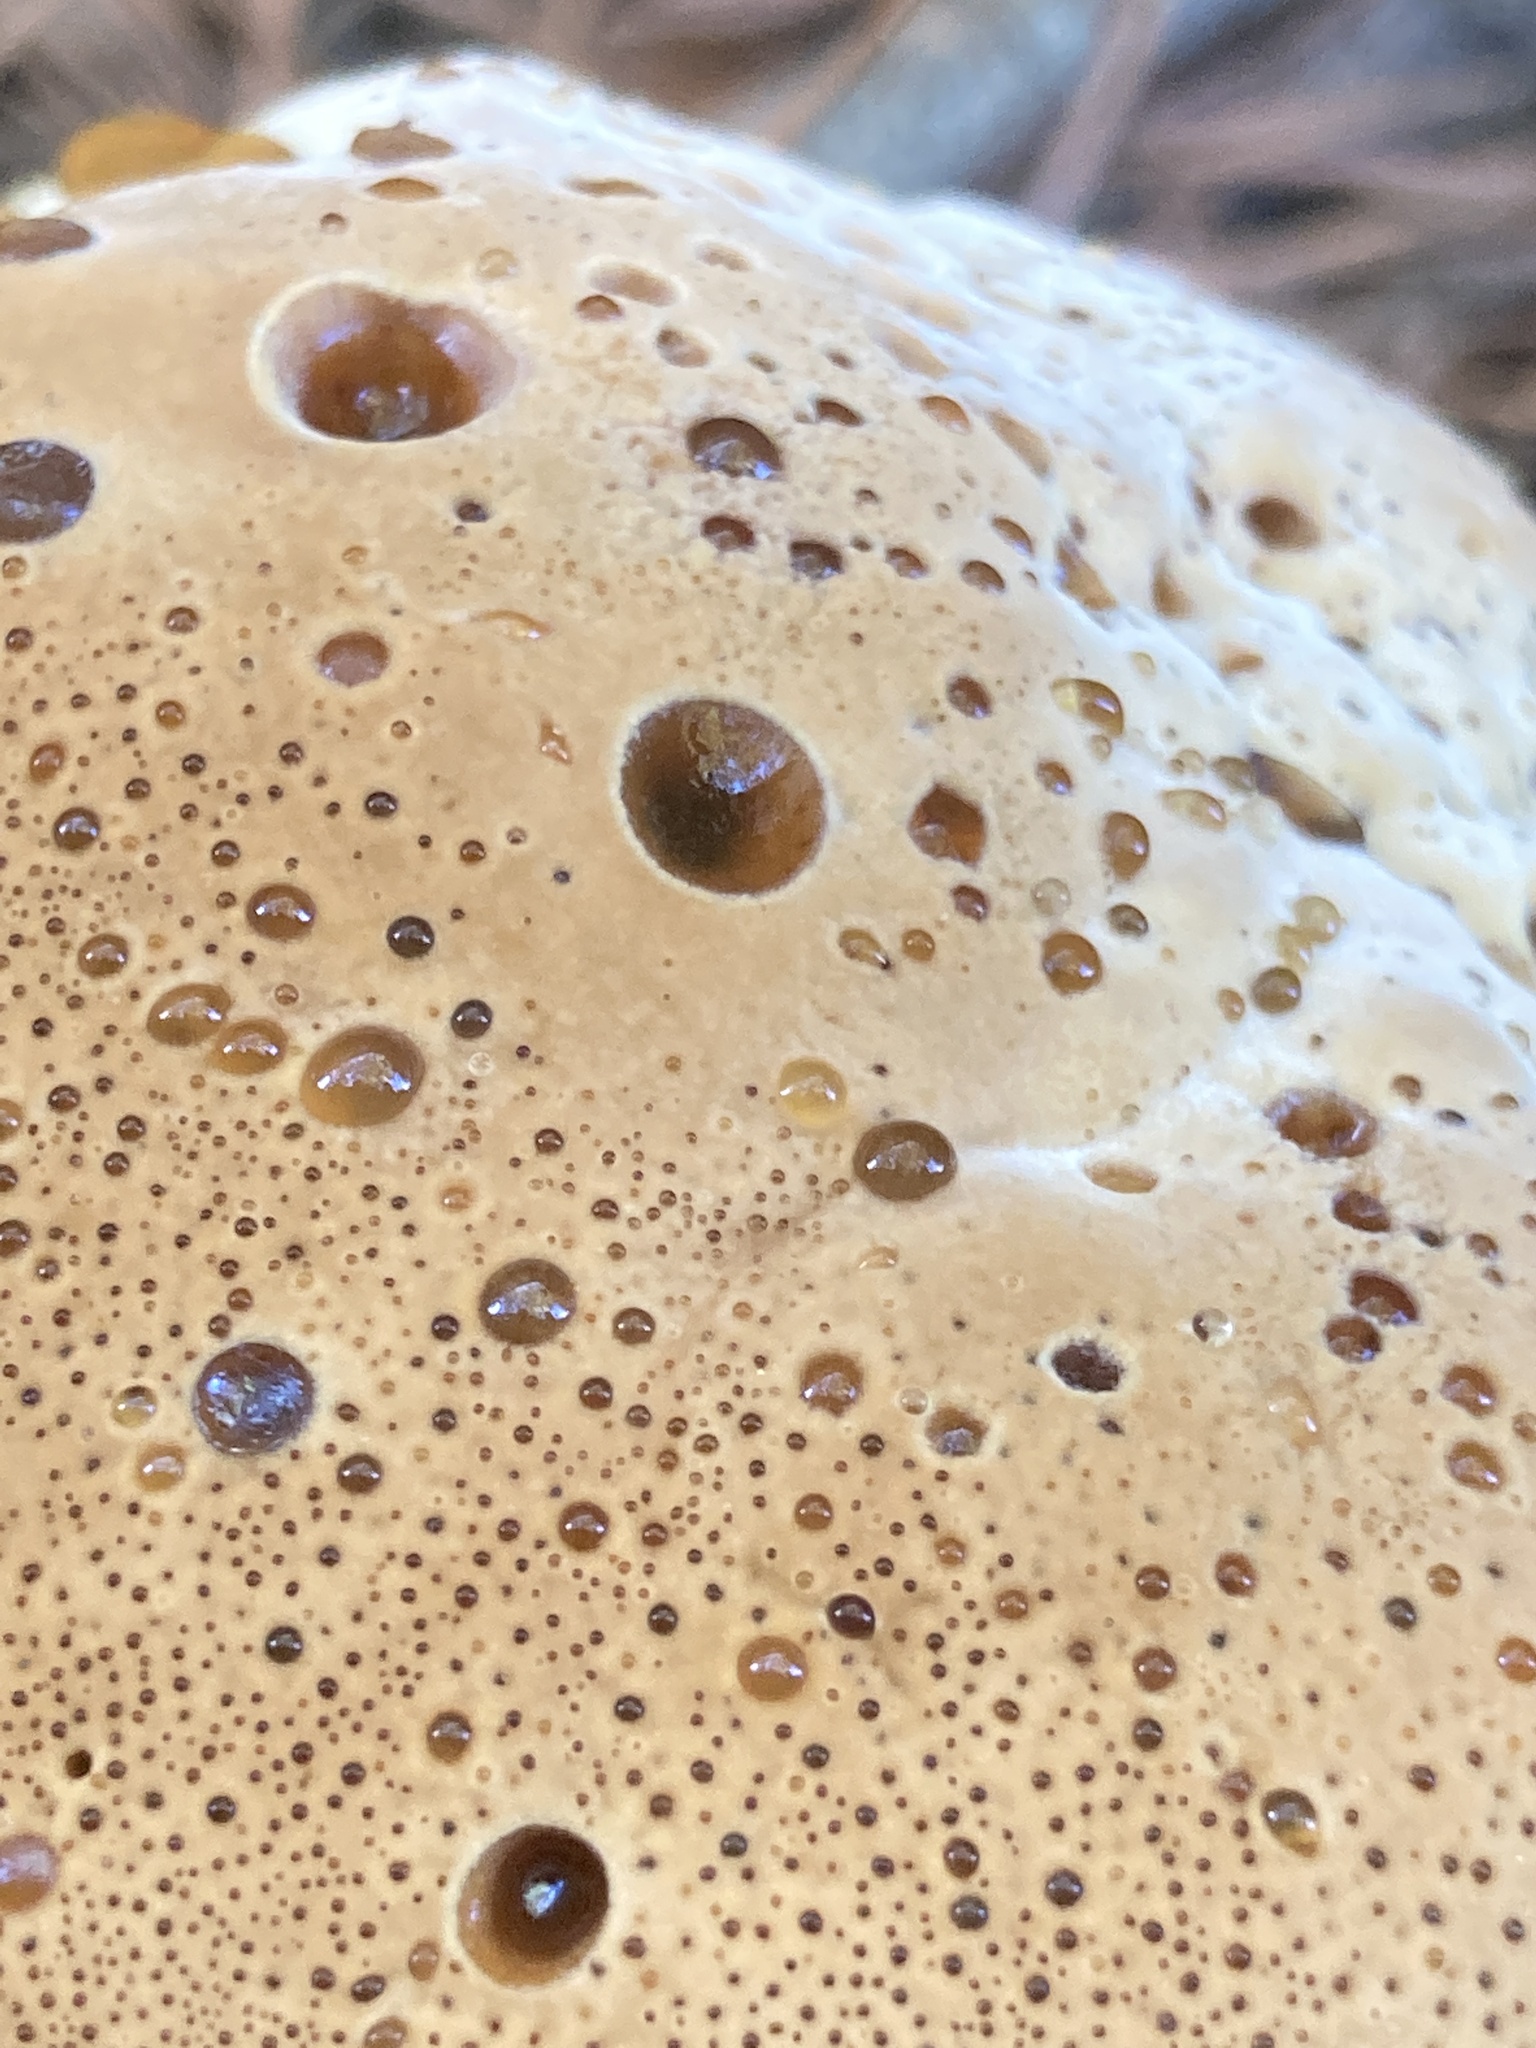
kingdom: Fungi
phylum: Basidiomycota
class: Agaricomycetes
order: Hymenochaetales
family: Hymenochaetaceae
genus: Pseudoinonotus
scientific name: Pseudoinonotus dryadeus
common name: Oak bracket
